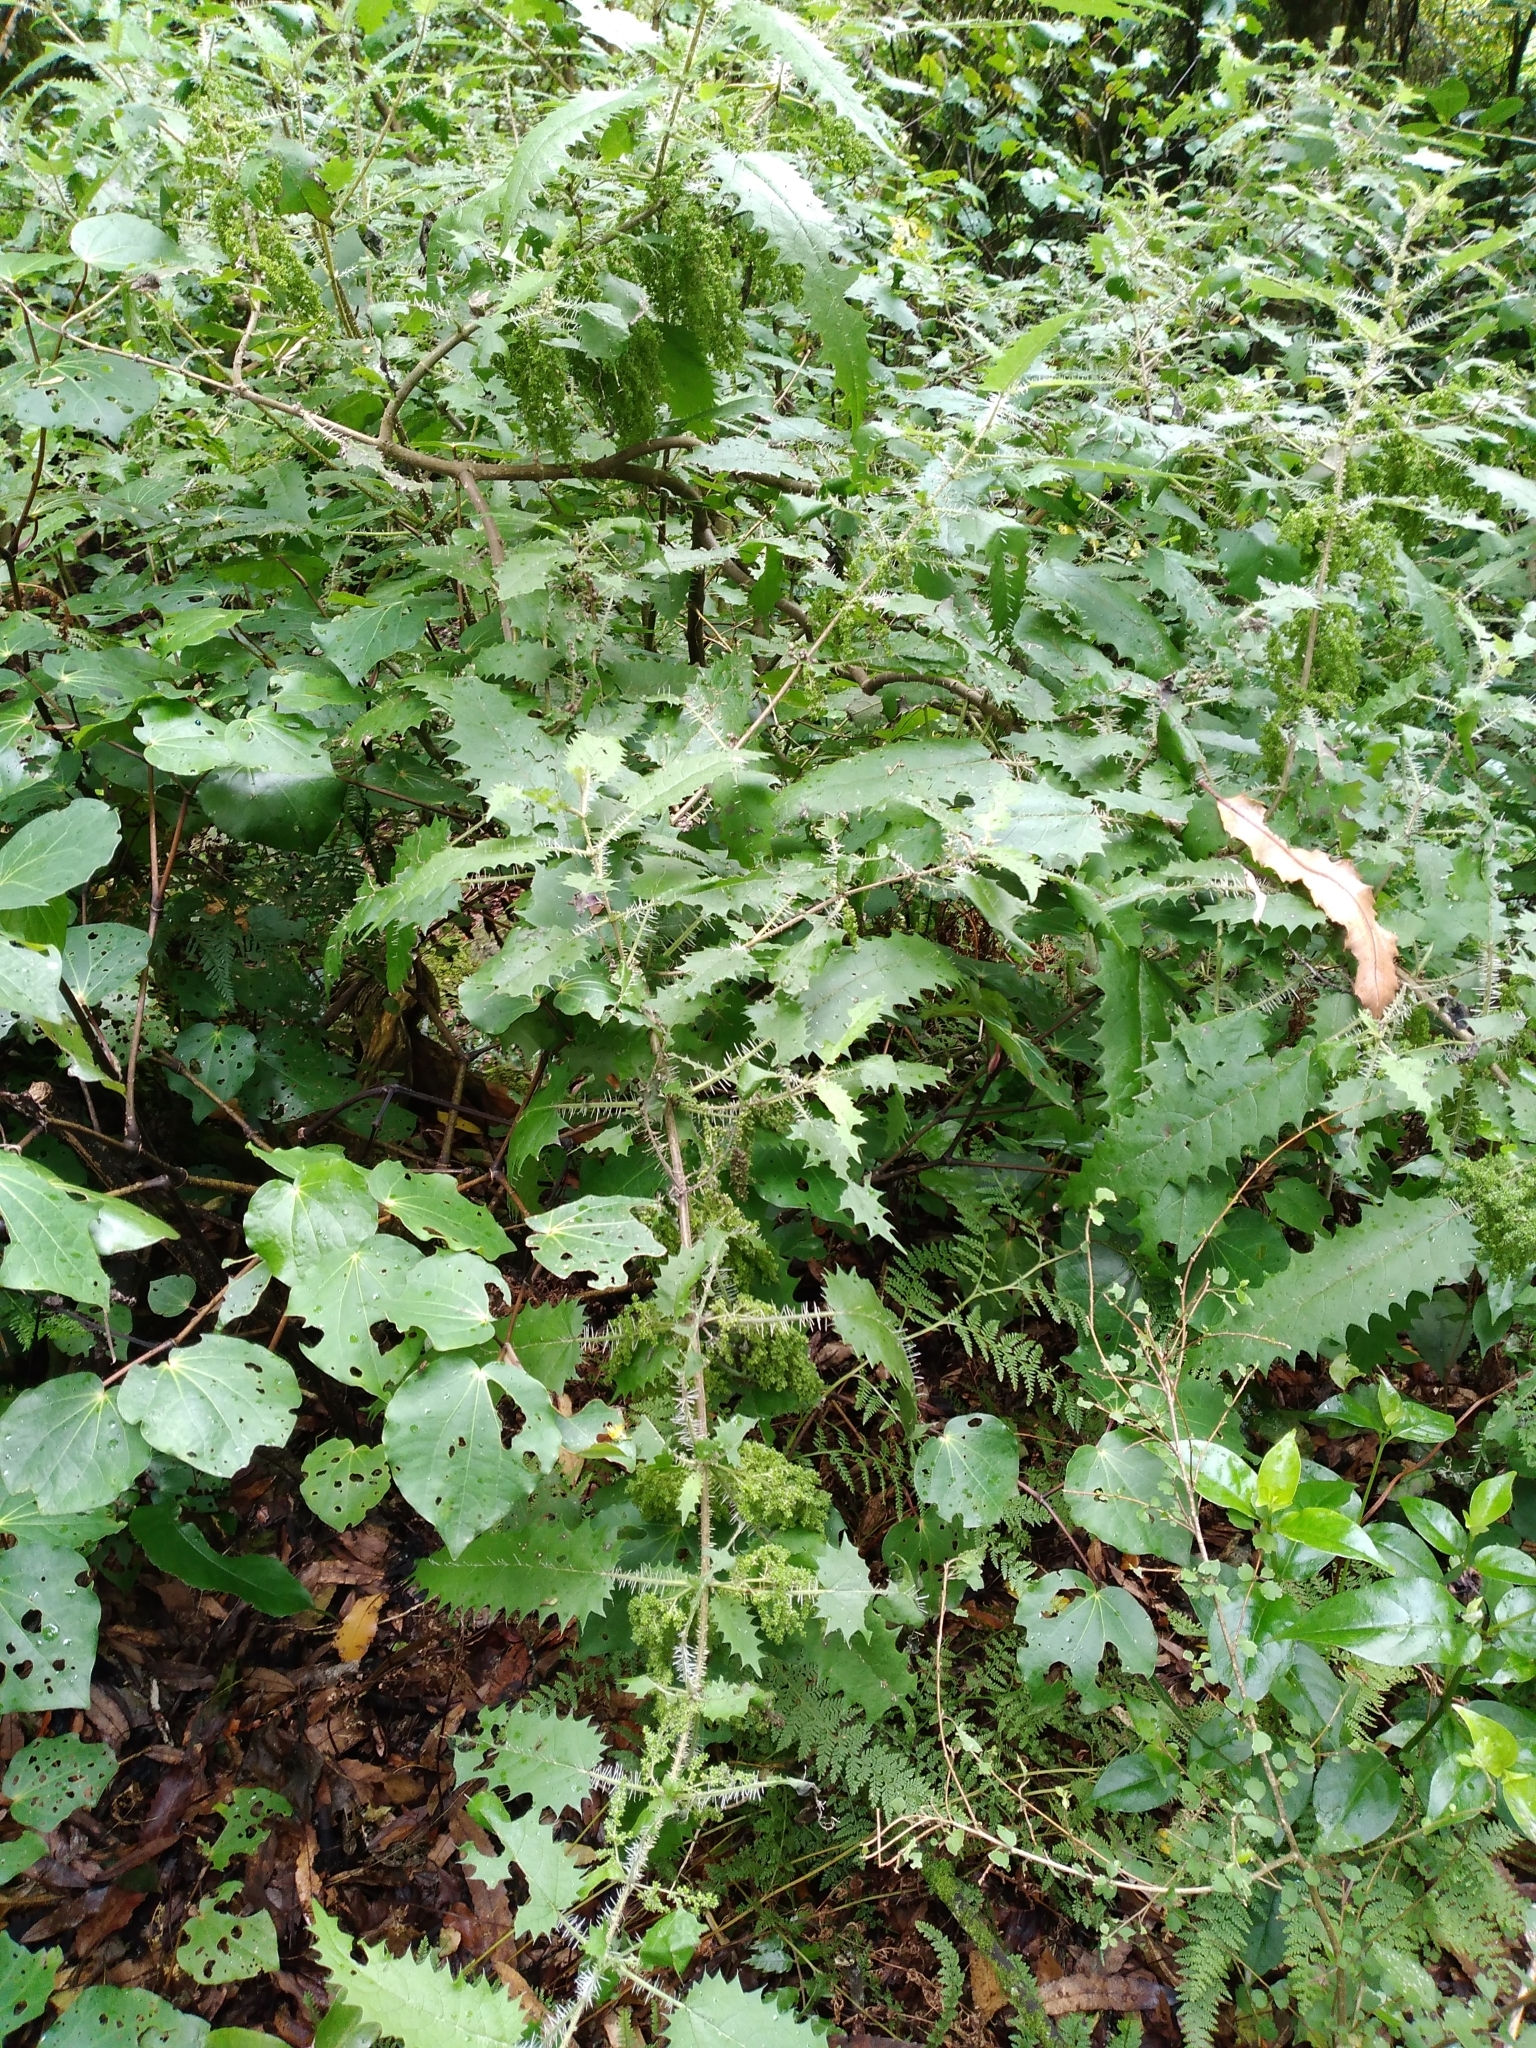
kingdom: Plantae
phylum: Tracheophyta
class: Magnoliopsida
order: Rosales
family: Urticaceae
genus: Urtica
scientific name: Urtica ferox
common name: Tree nettle
